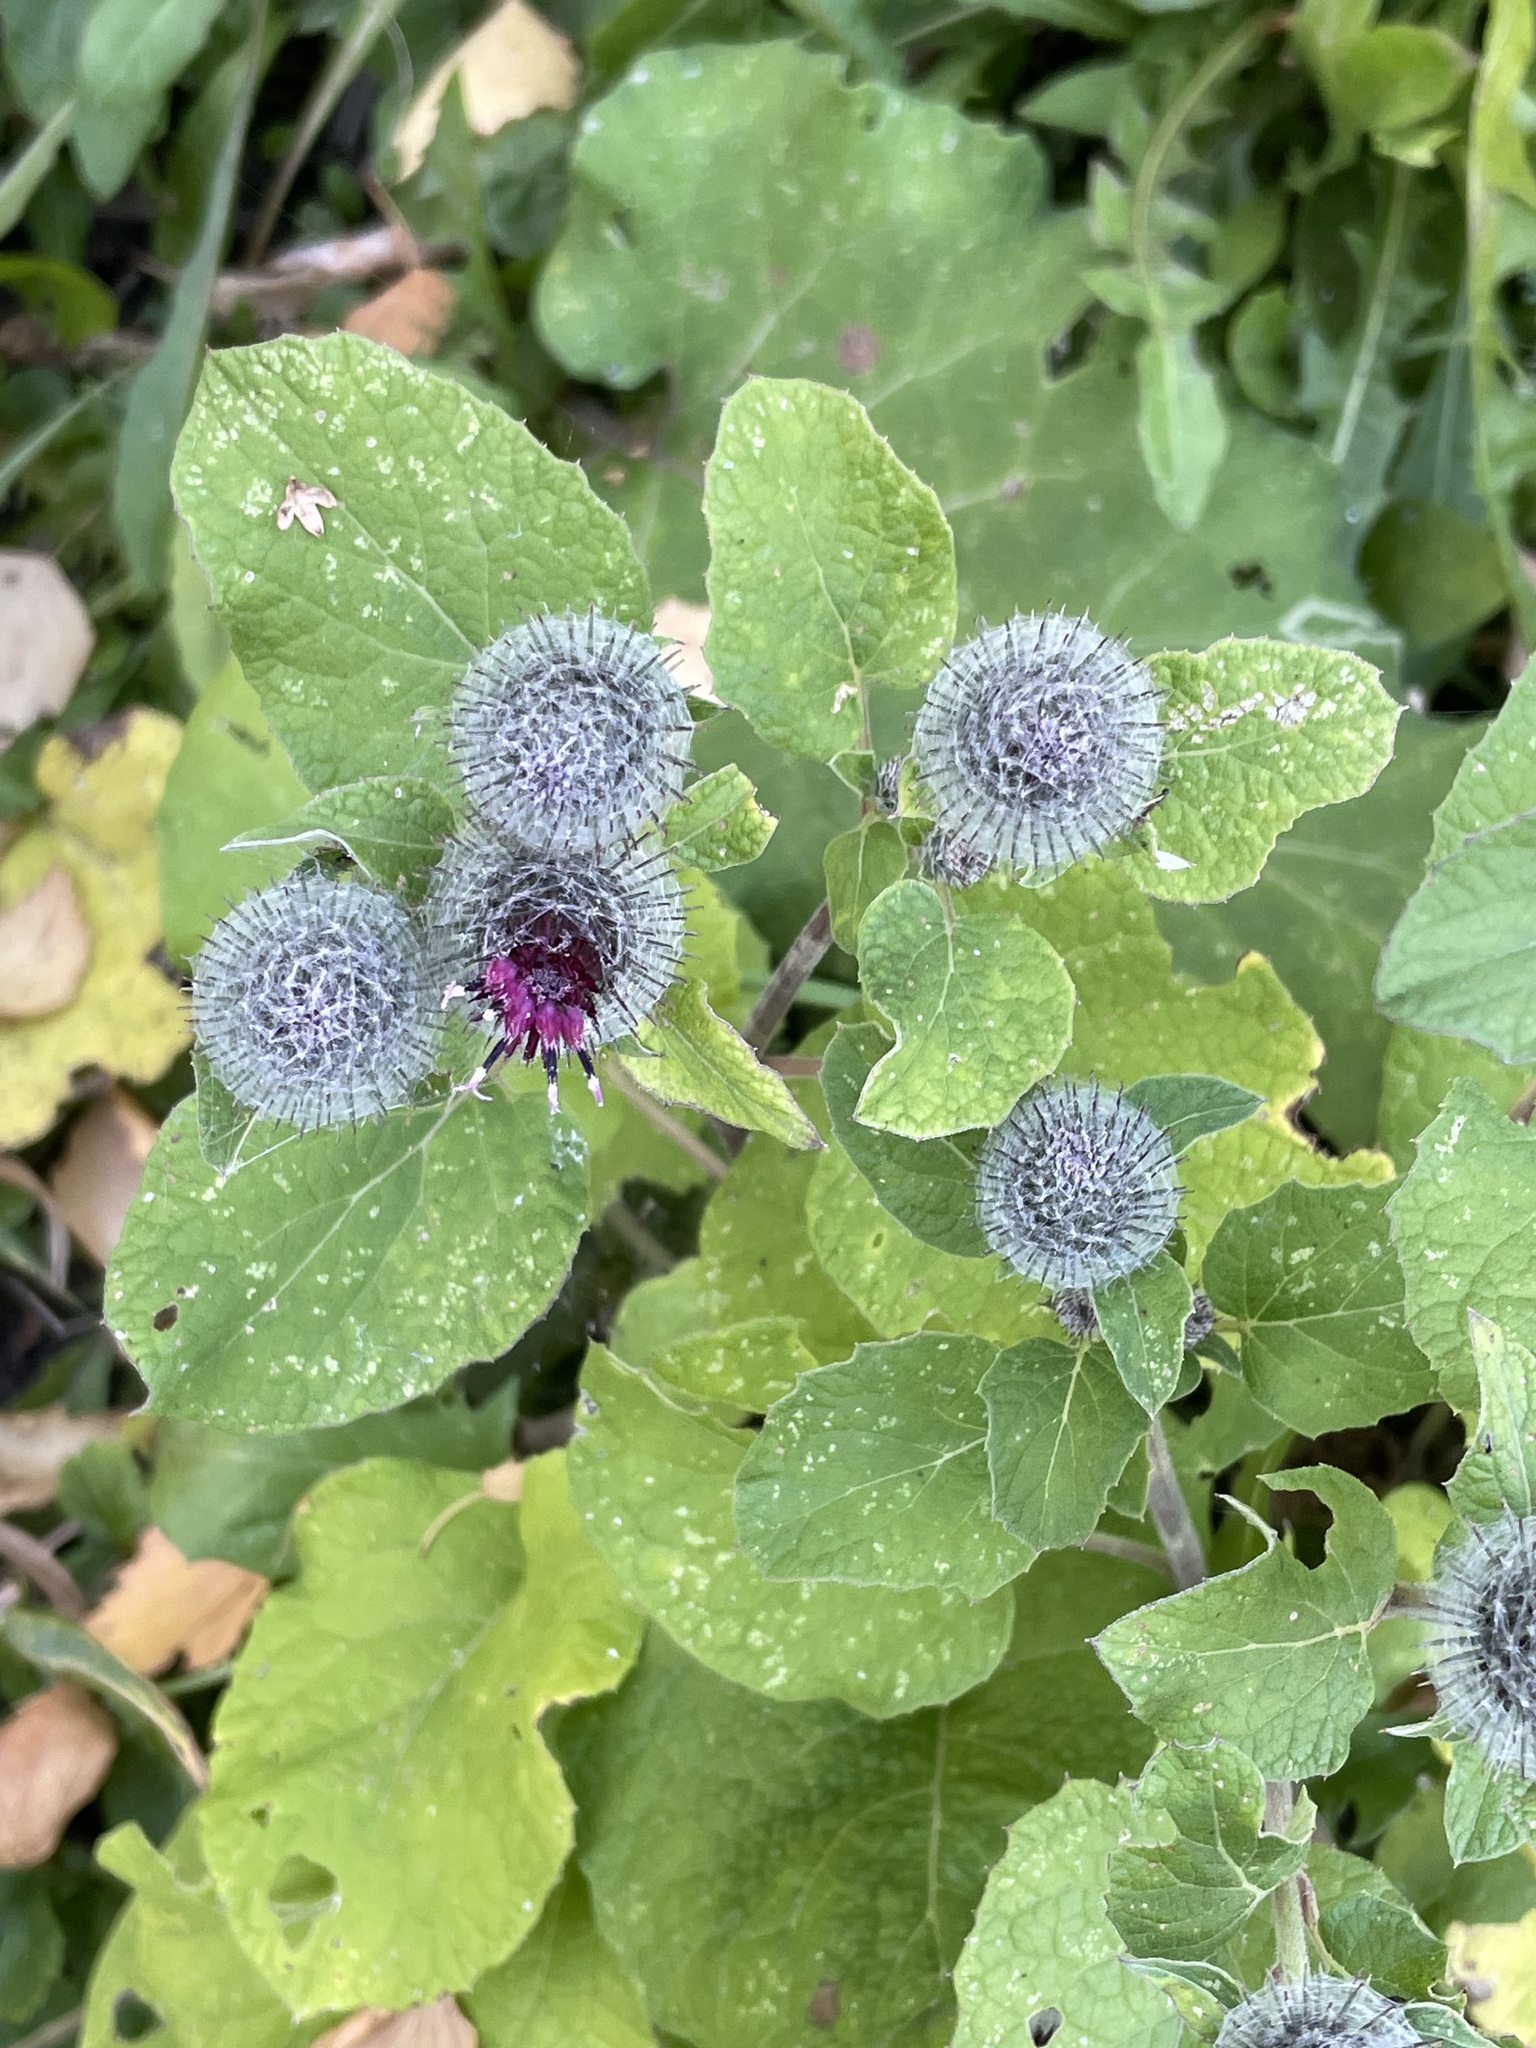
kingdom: Plantae
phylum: Tracheophyta
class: Magnoliopsida
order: Asterales
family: Asteraceae
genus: Arctium
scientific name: Arctium tomentosum
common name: Woolly burdock
